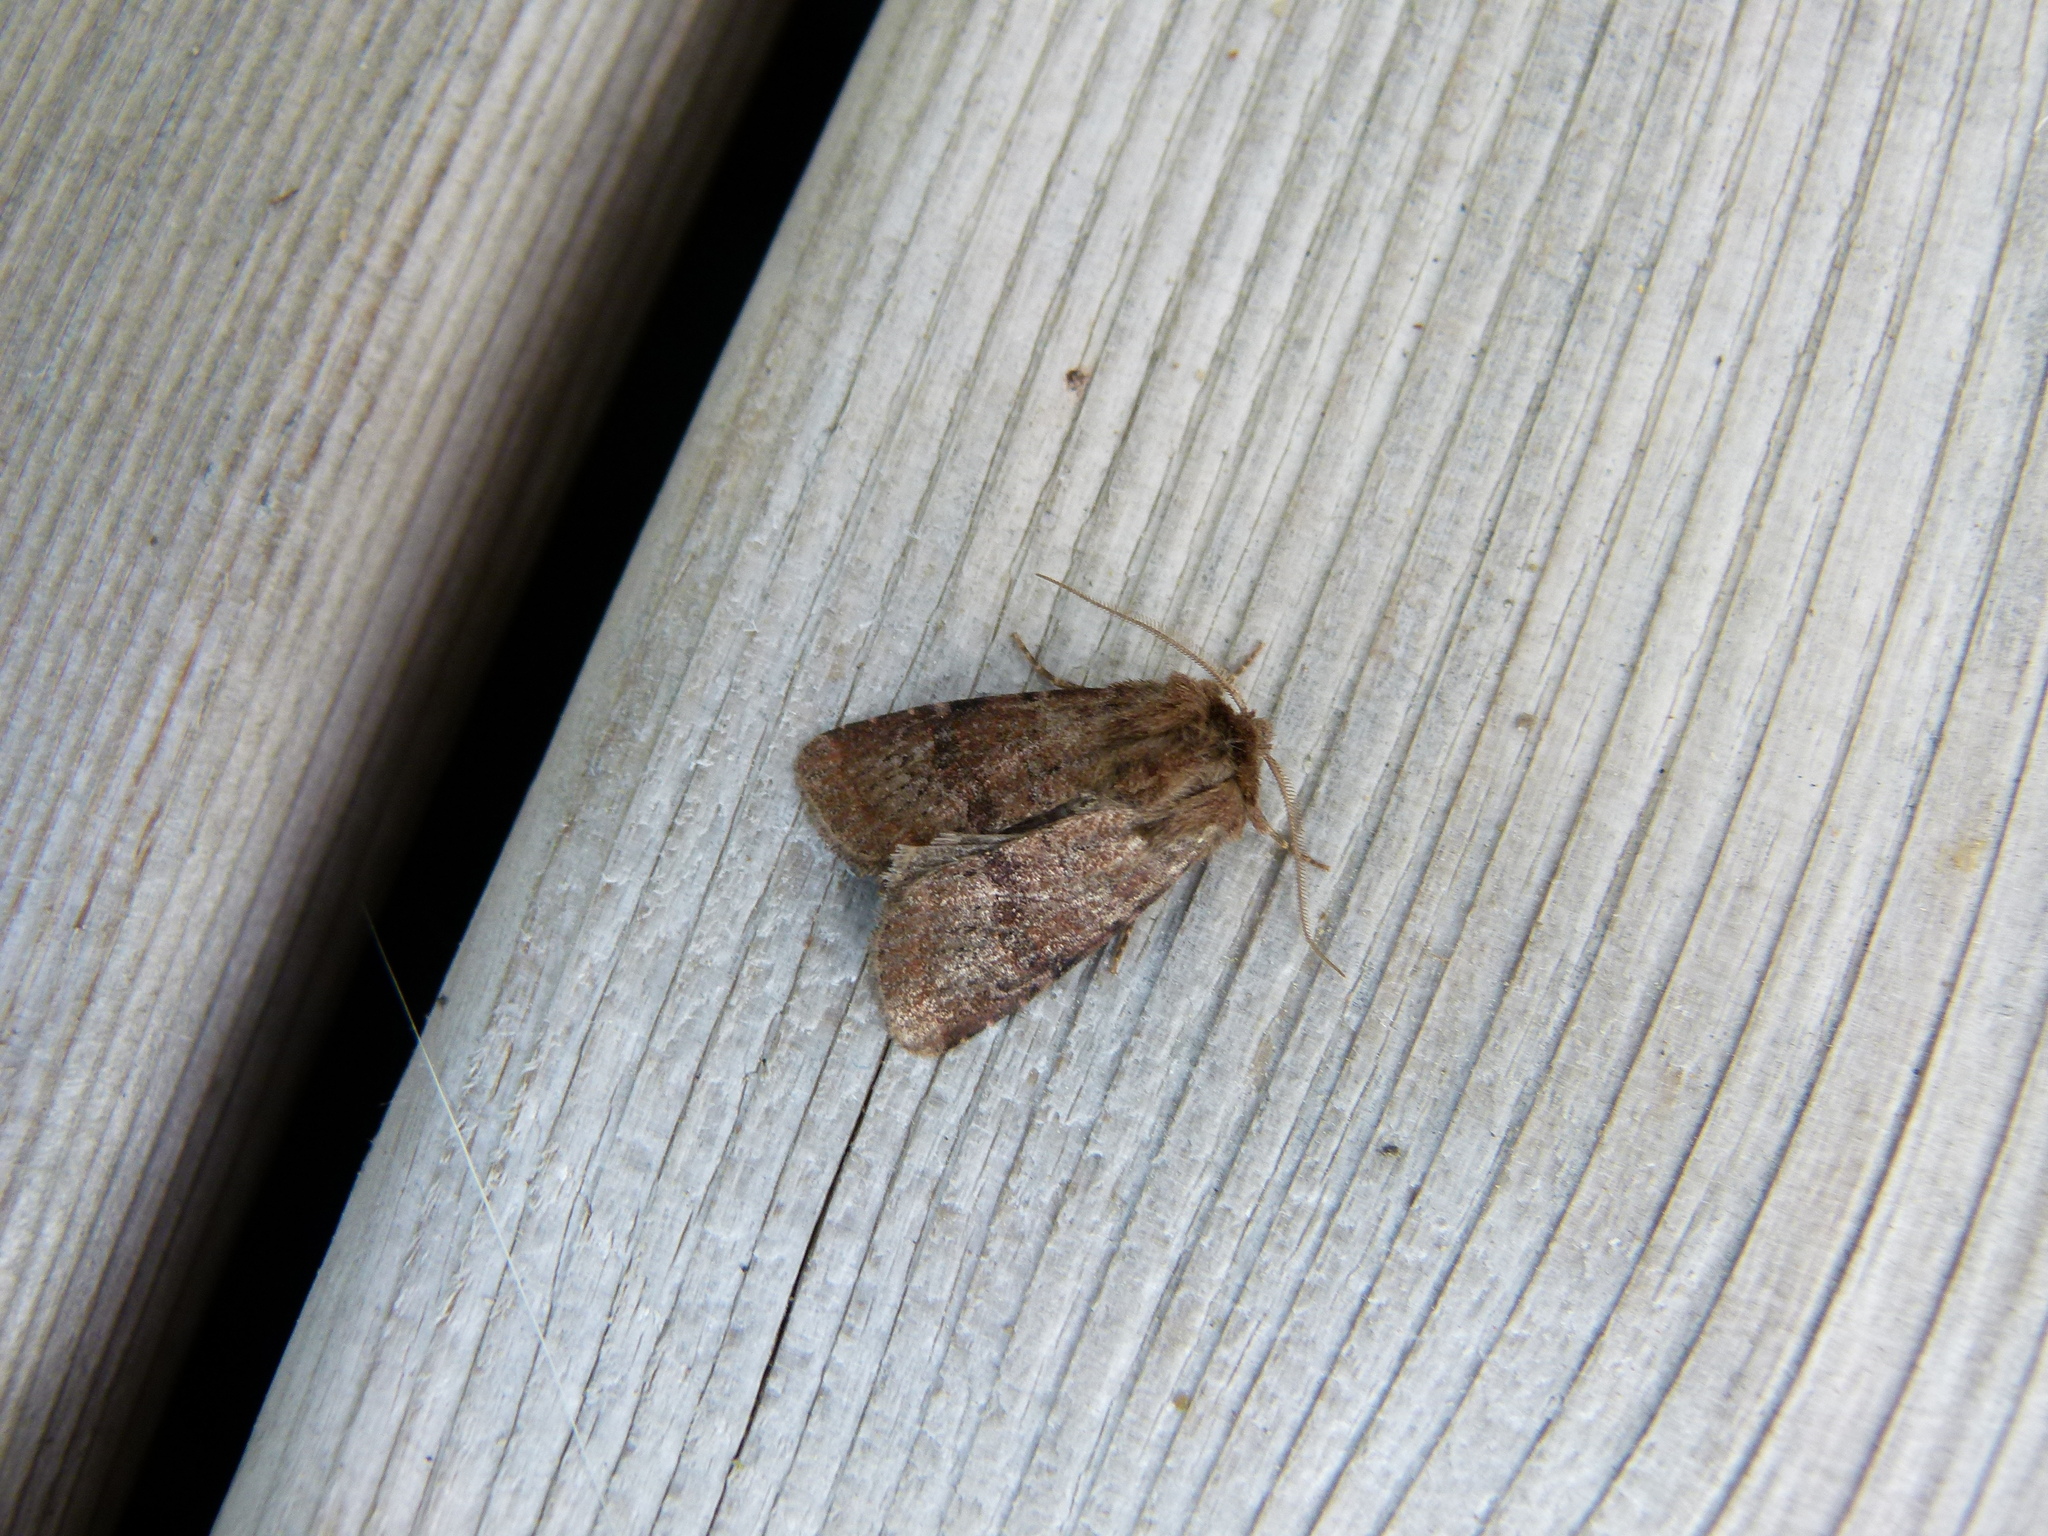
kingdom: Animalia
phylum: Arthropoda
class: Insecta
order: Lepidoptera
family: Noctuidae
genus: Trichopolia
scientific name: Trichopolia
